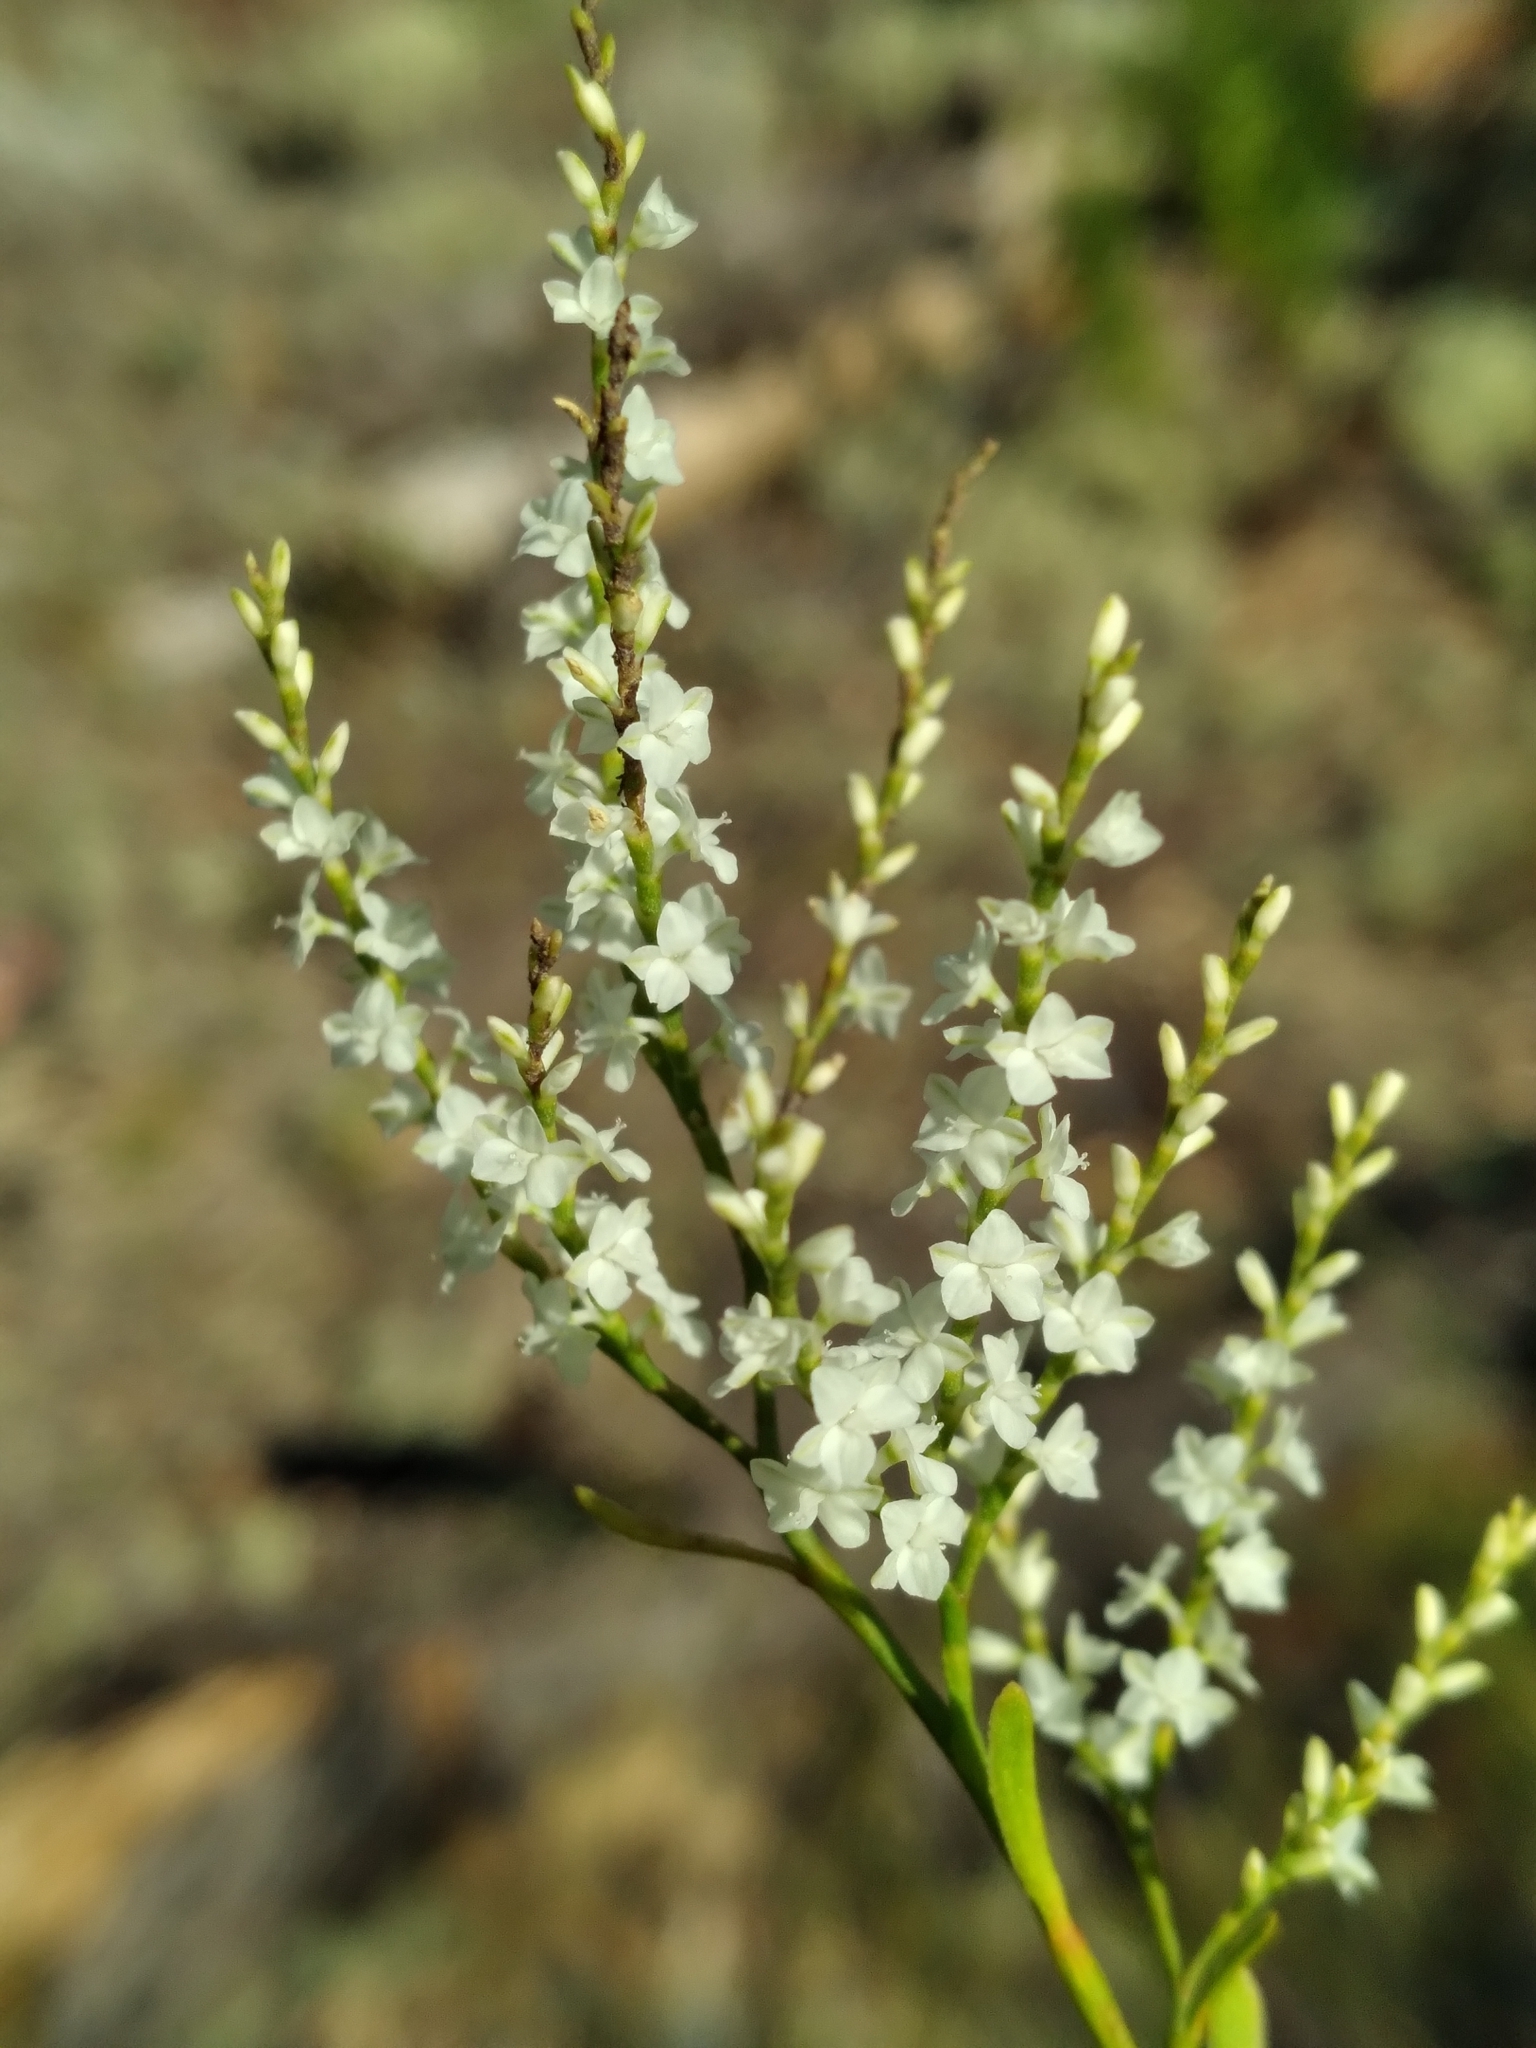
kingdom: Plantae
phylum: Tracheophyta
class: Magnoliopsida
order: Caryophyllales
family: Polygonaceae
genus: Polygonella
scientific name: Polygonella polygama
